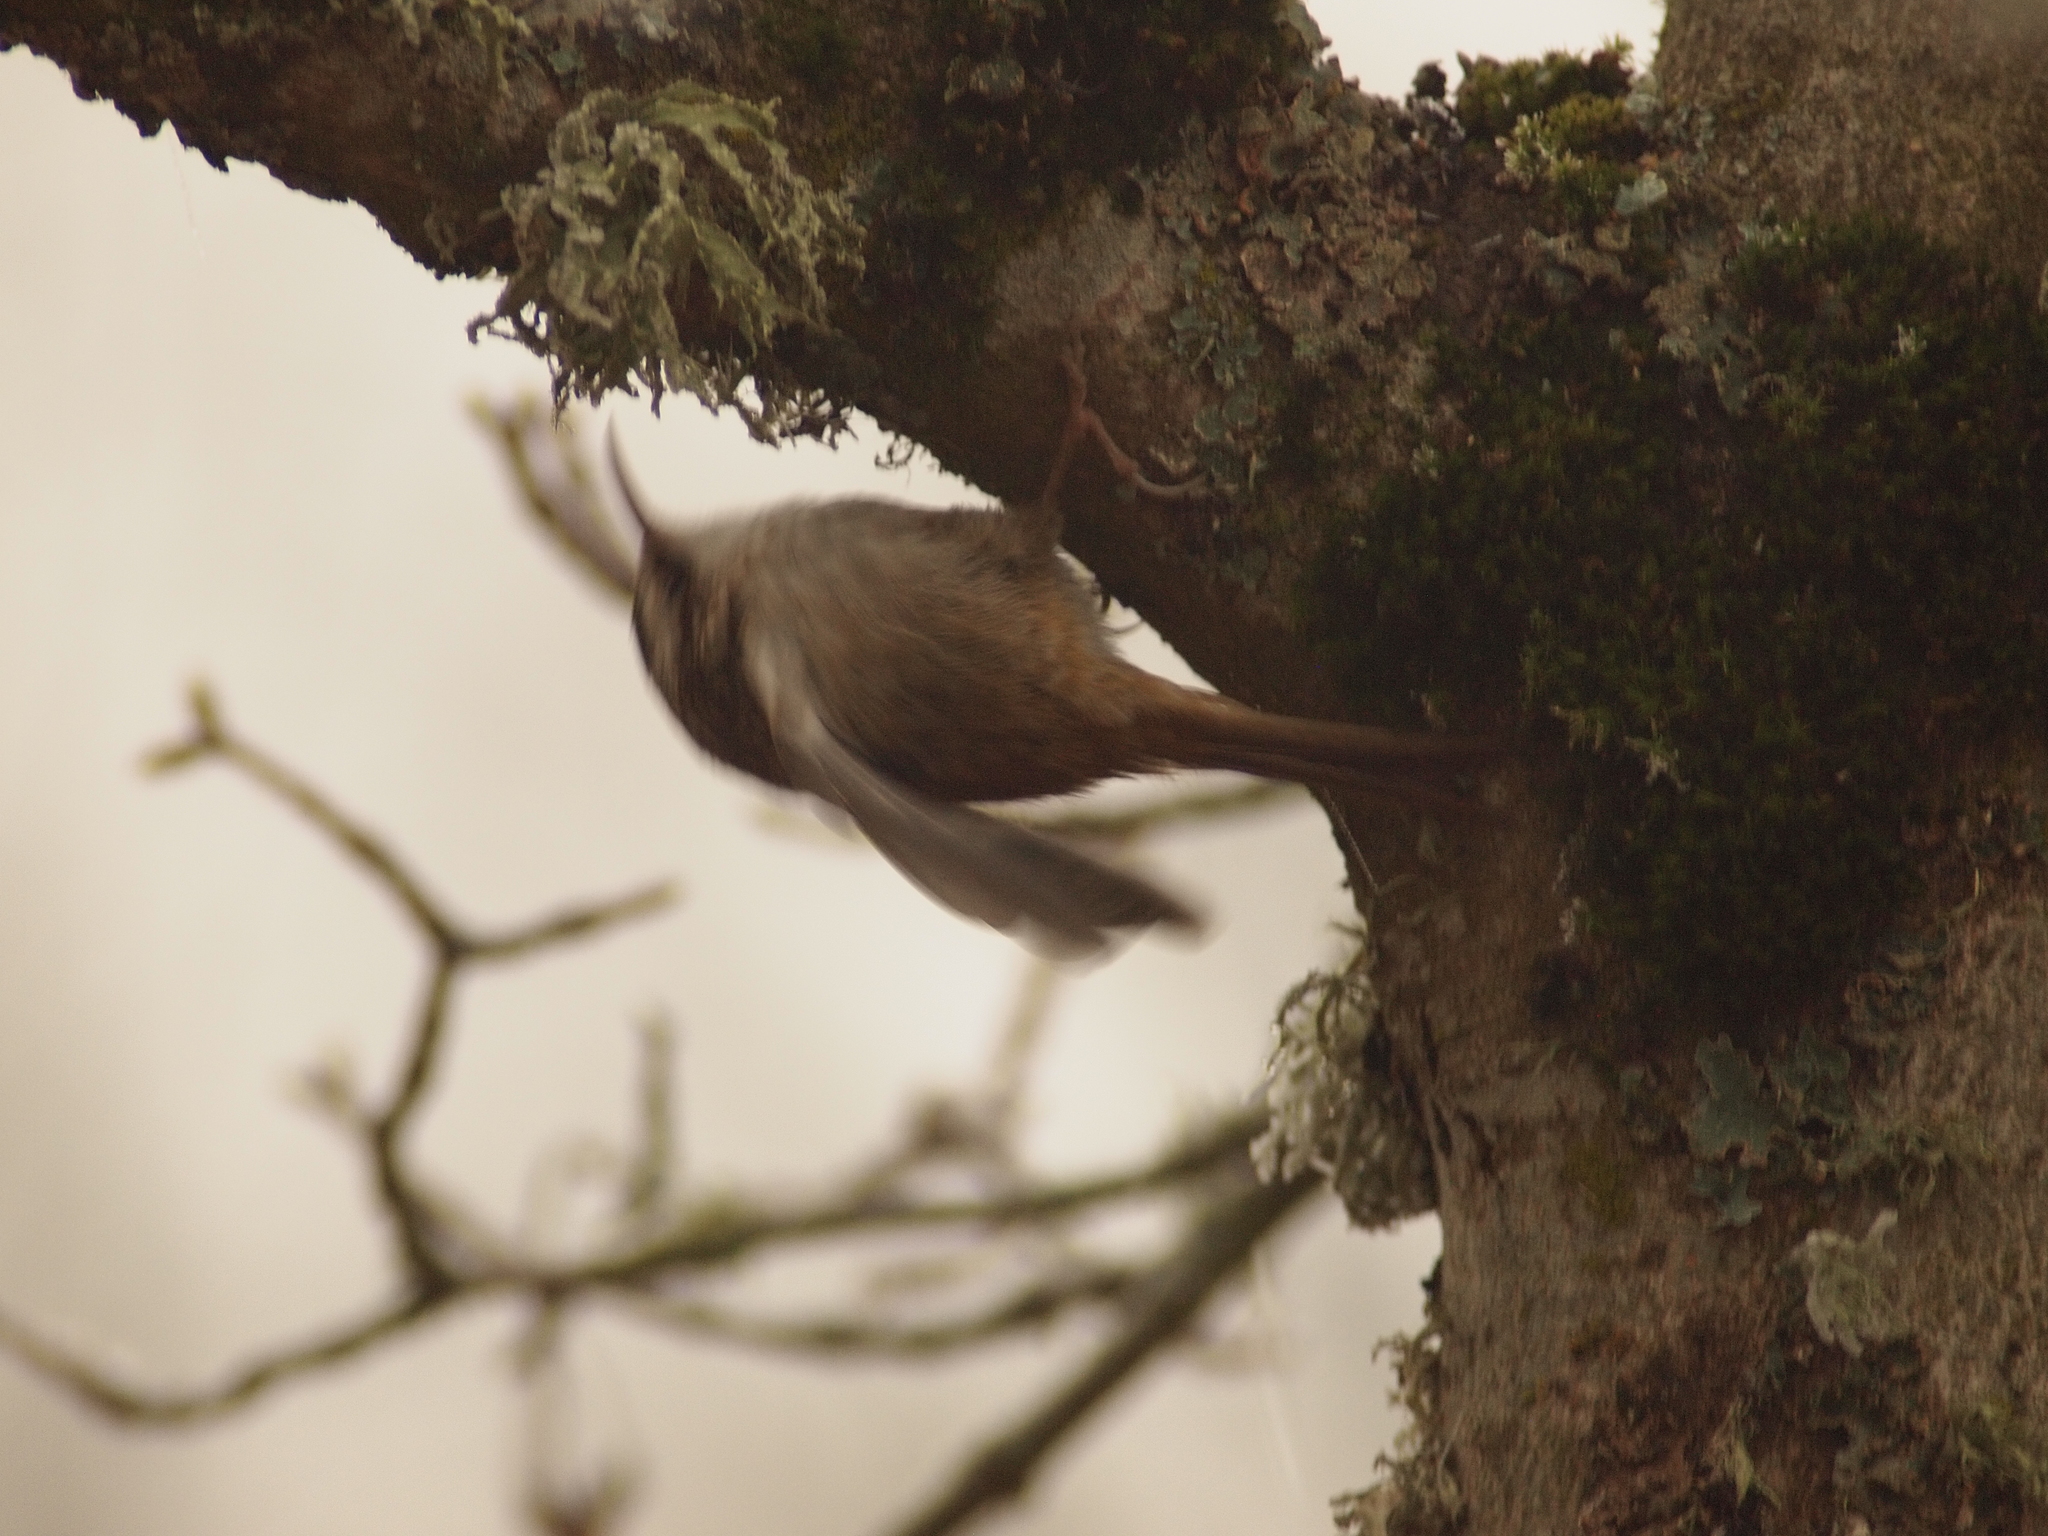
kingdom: Animalia
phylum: Chordata
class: Aves
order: Passeriformes
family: Certhiidae
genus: Certhia
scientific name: Certhia americana
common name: Brown creeper
